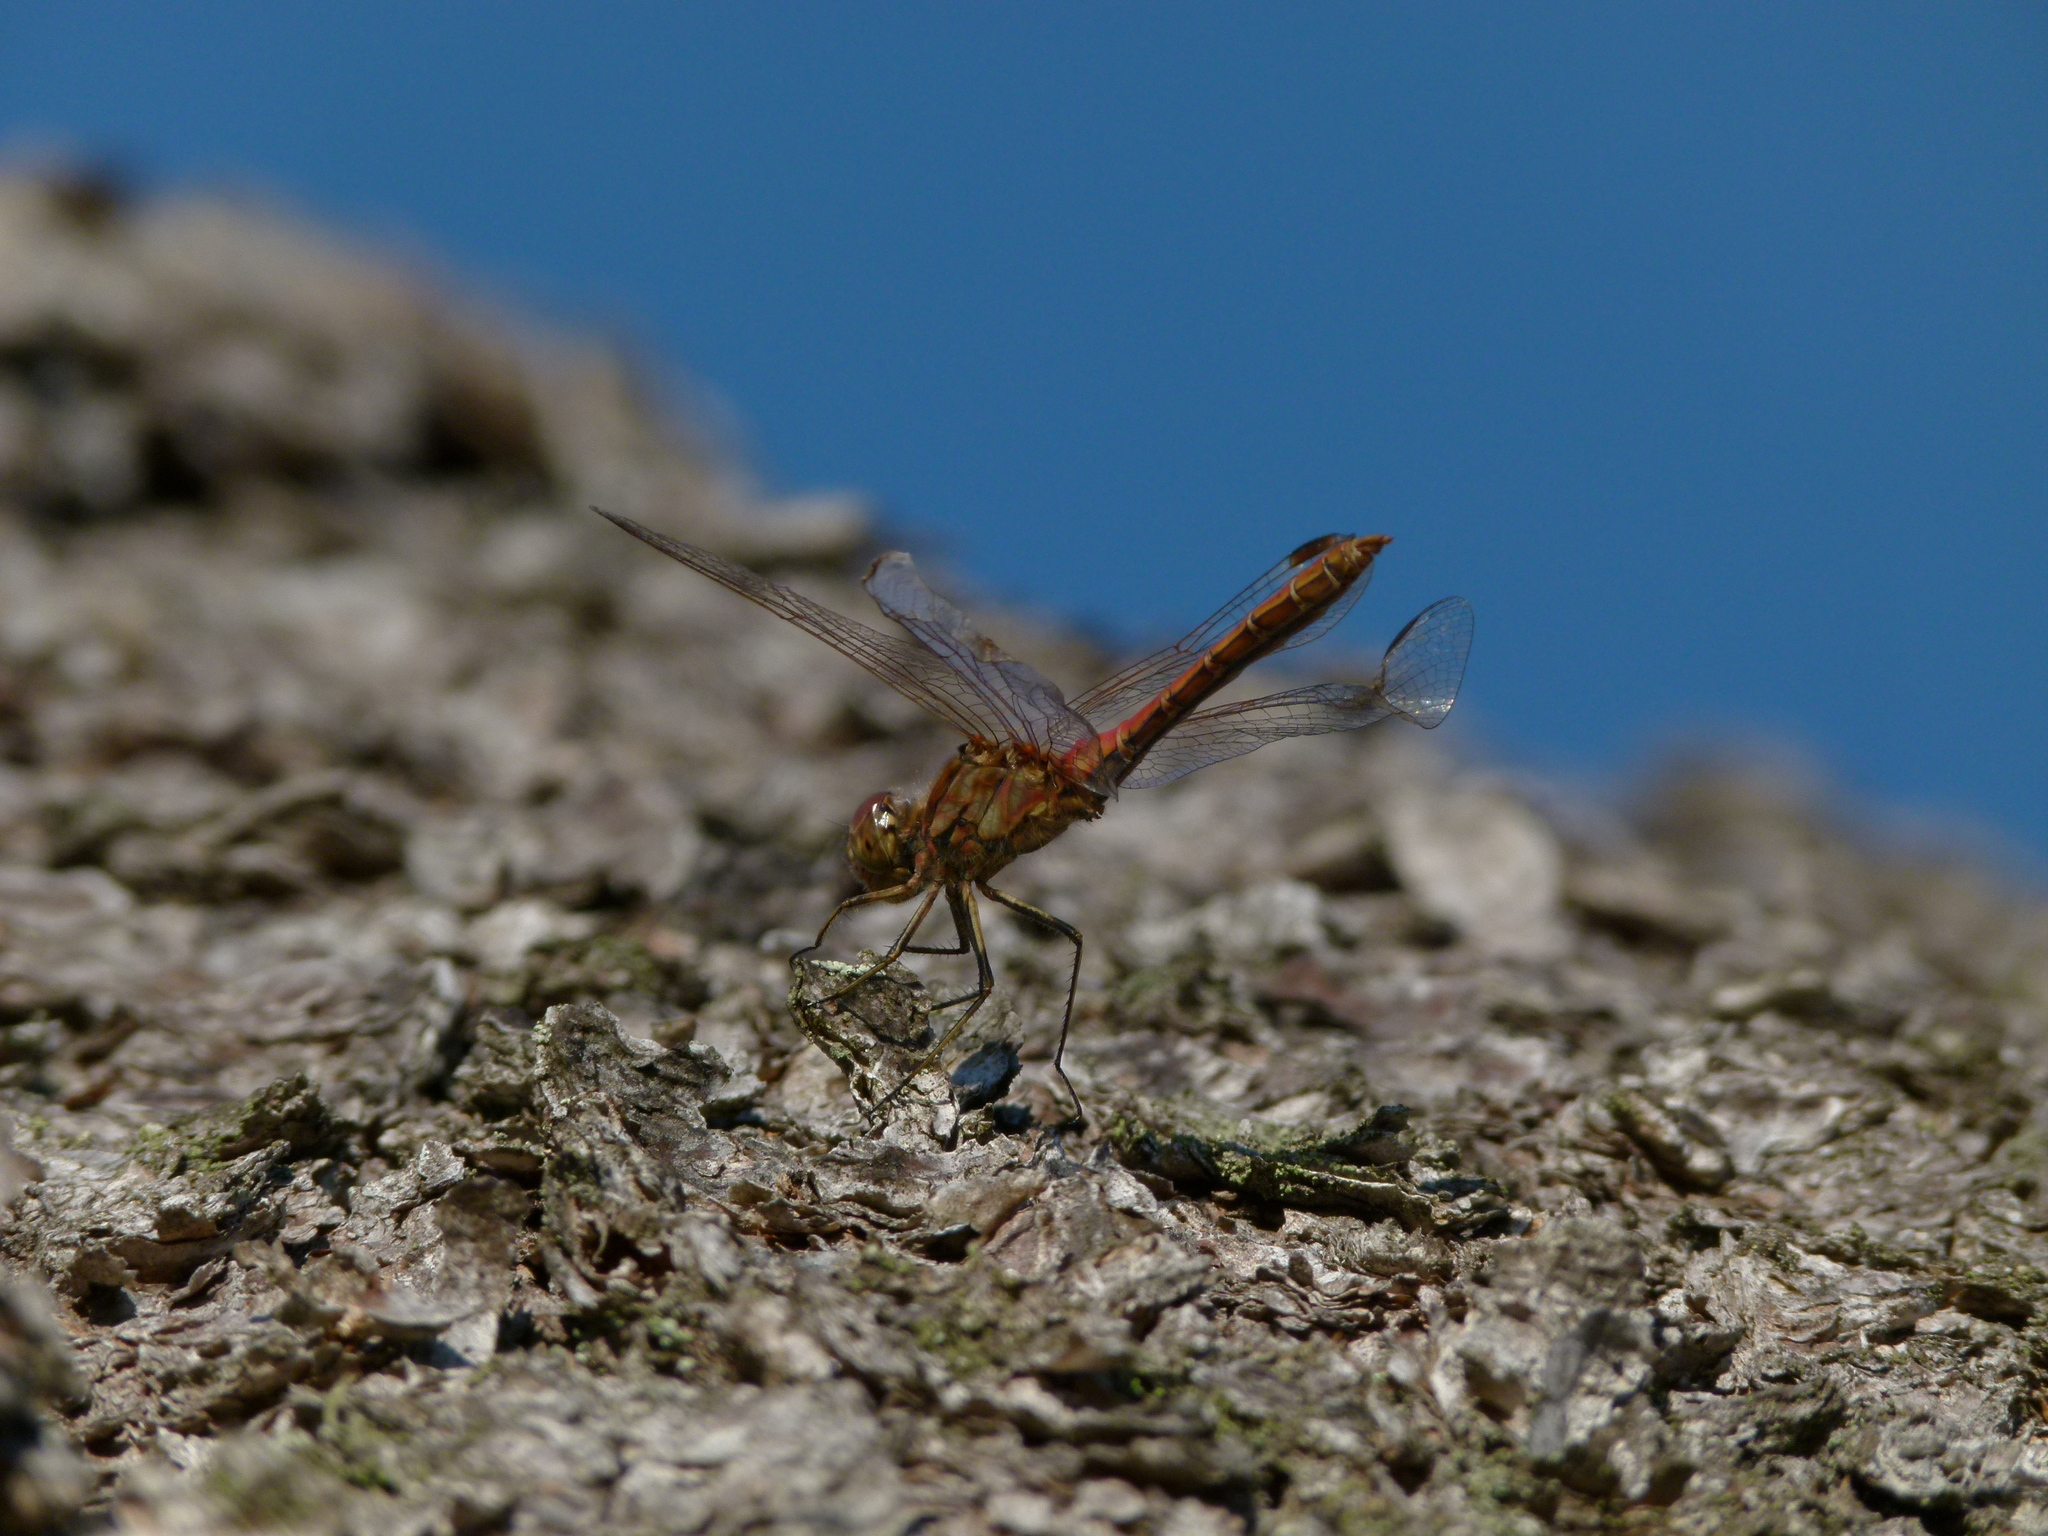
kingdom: Animalia
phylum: Arthropoda
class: Insecta
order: Odonata
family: Libellulidae
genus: Sympetrum
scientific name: Sympetrum vulgatum
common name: Vagrant darter
